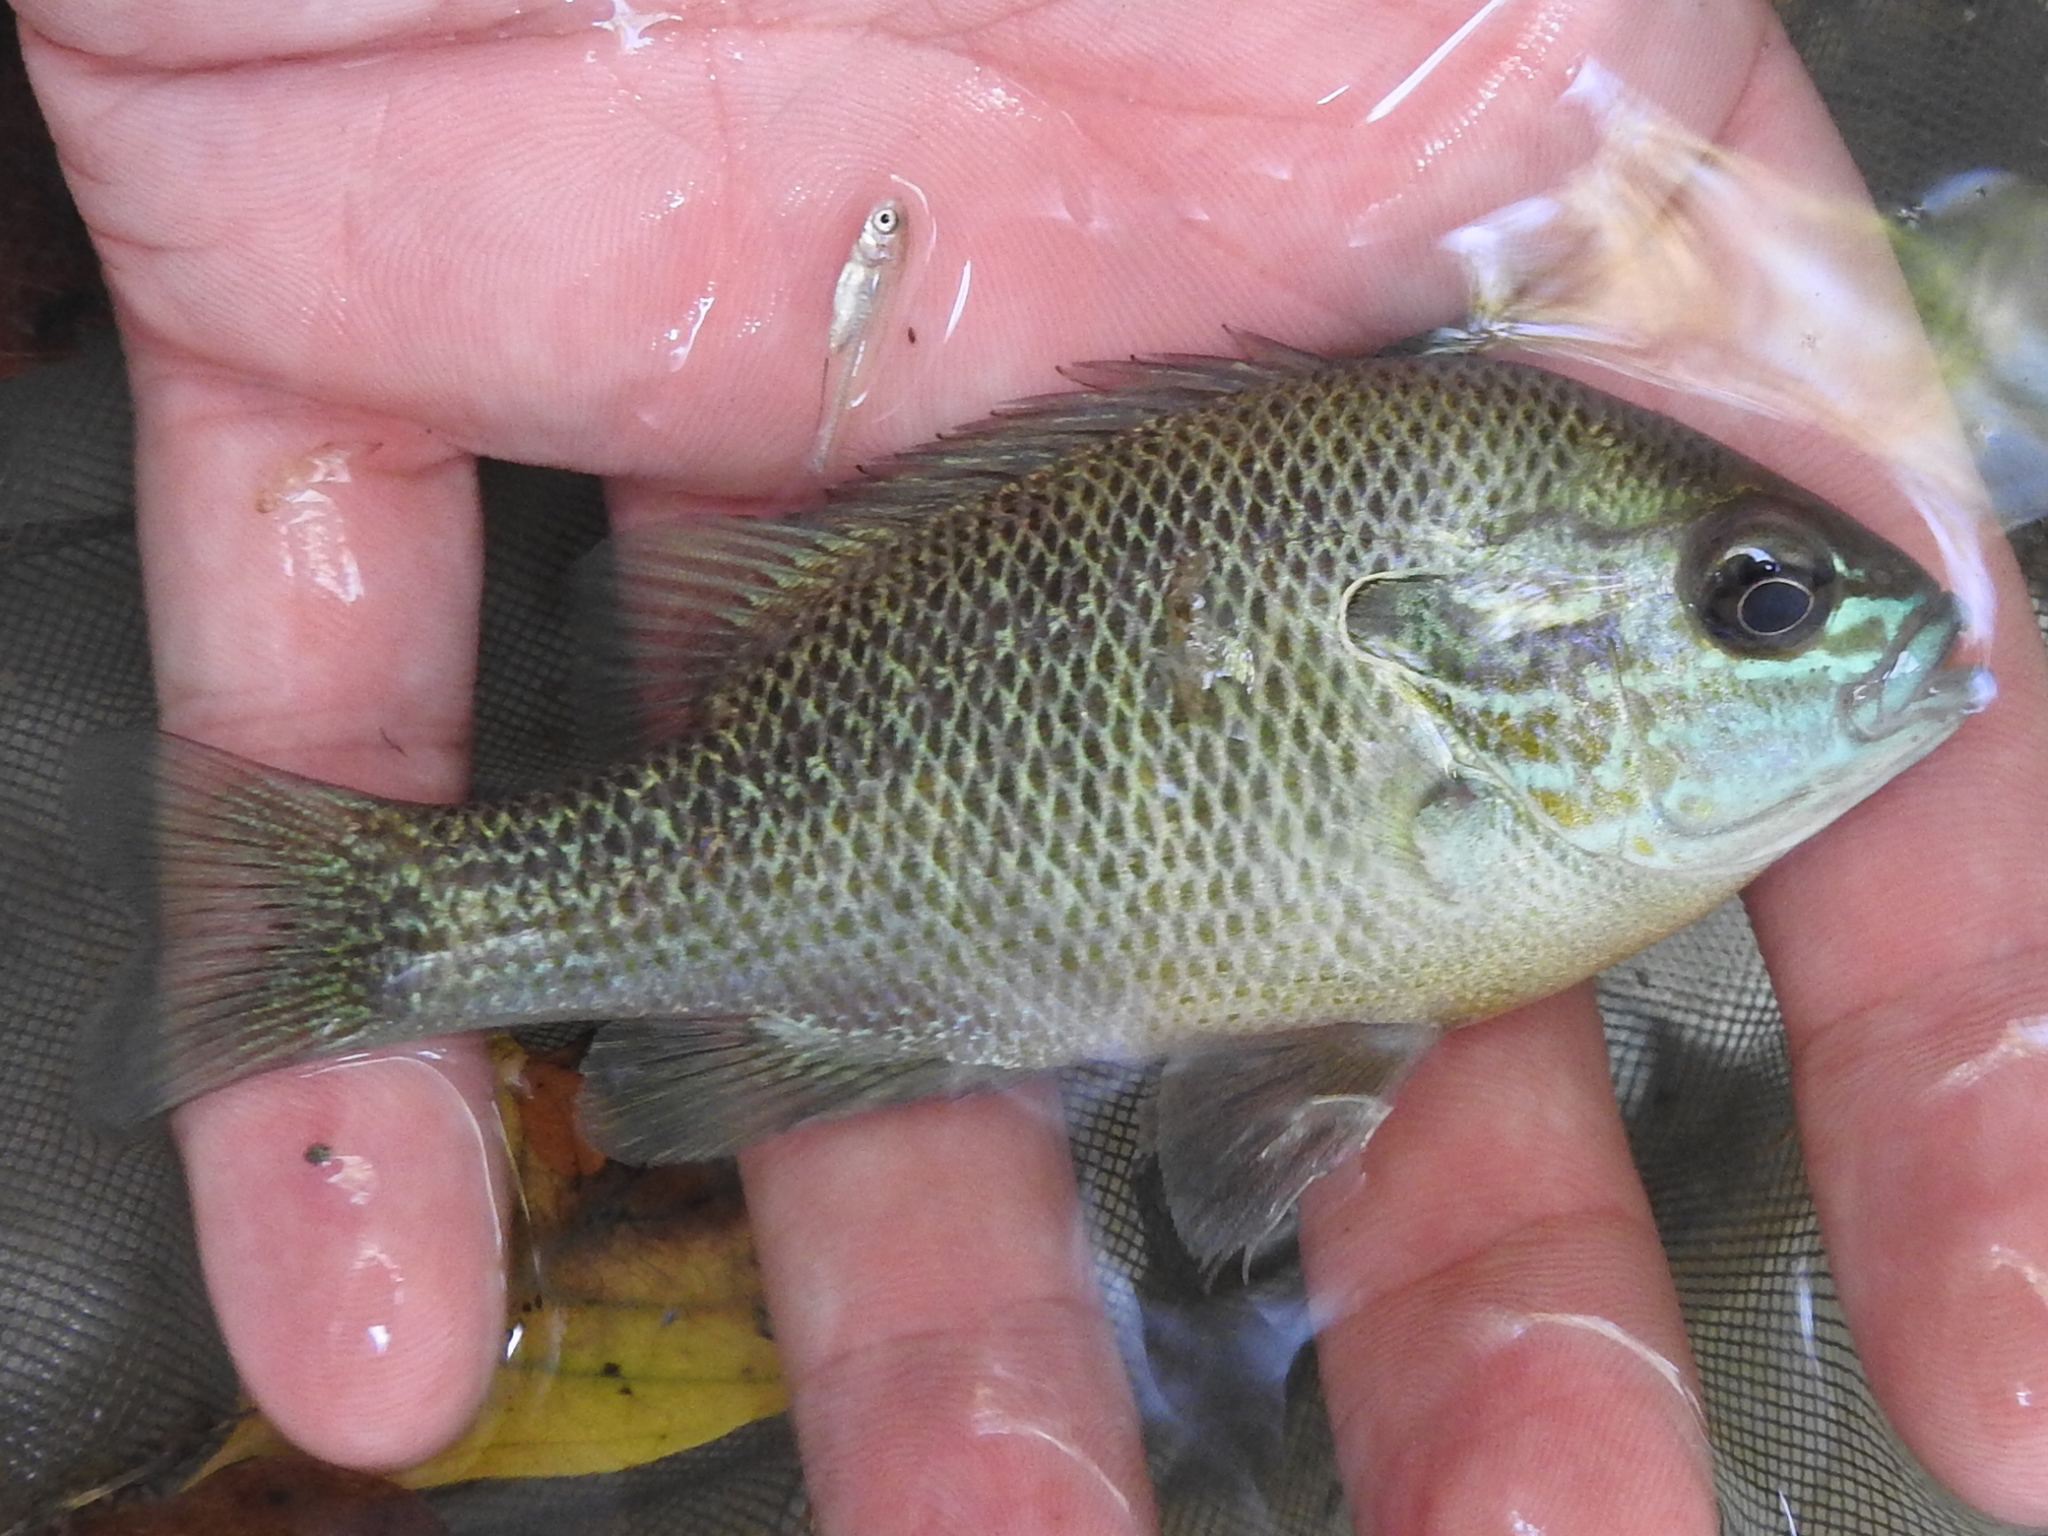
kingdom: Animalia
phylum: Chordata
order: Perciformes
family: Centrarchidae
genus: Lepomis
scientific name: Lepomis megalotis
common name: Longear sunfish
